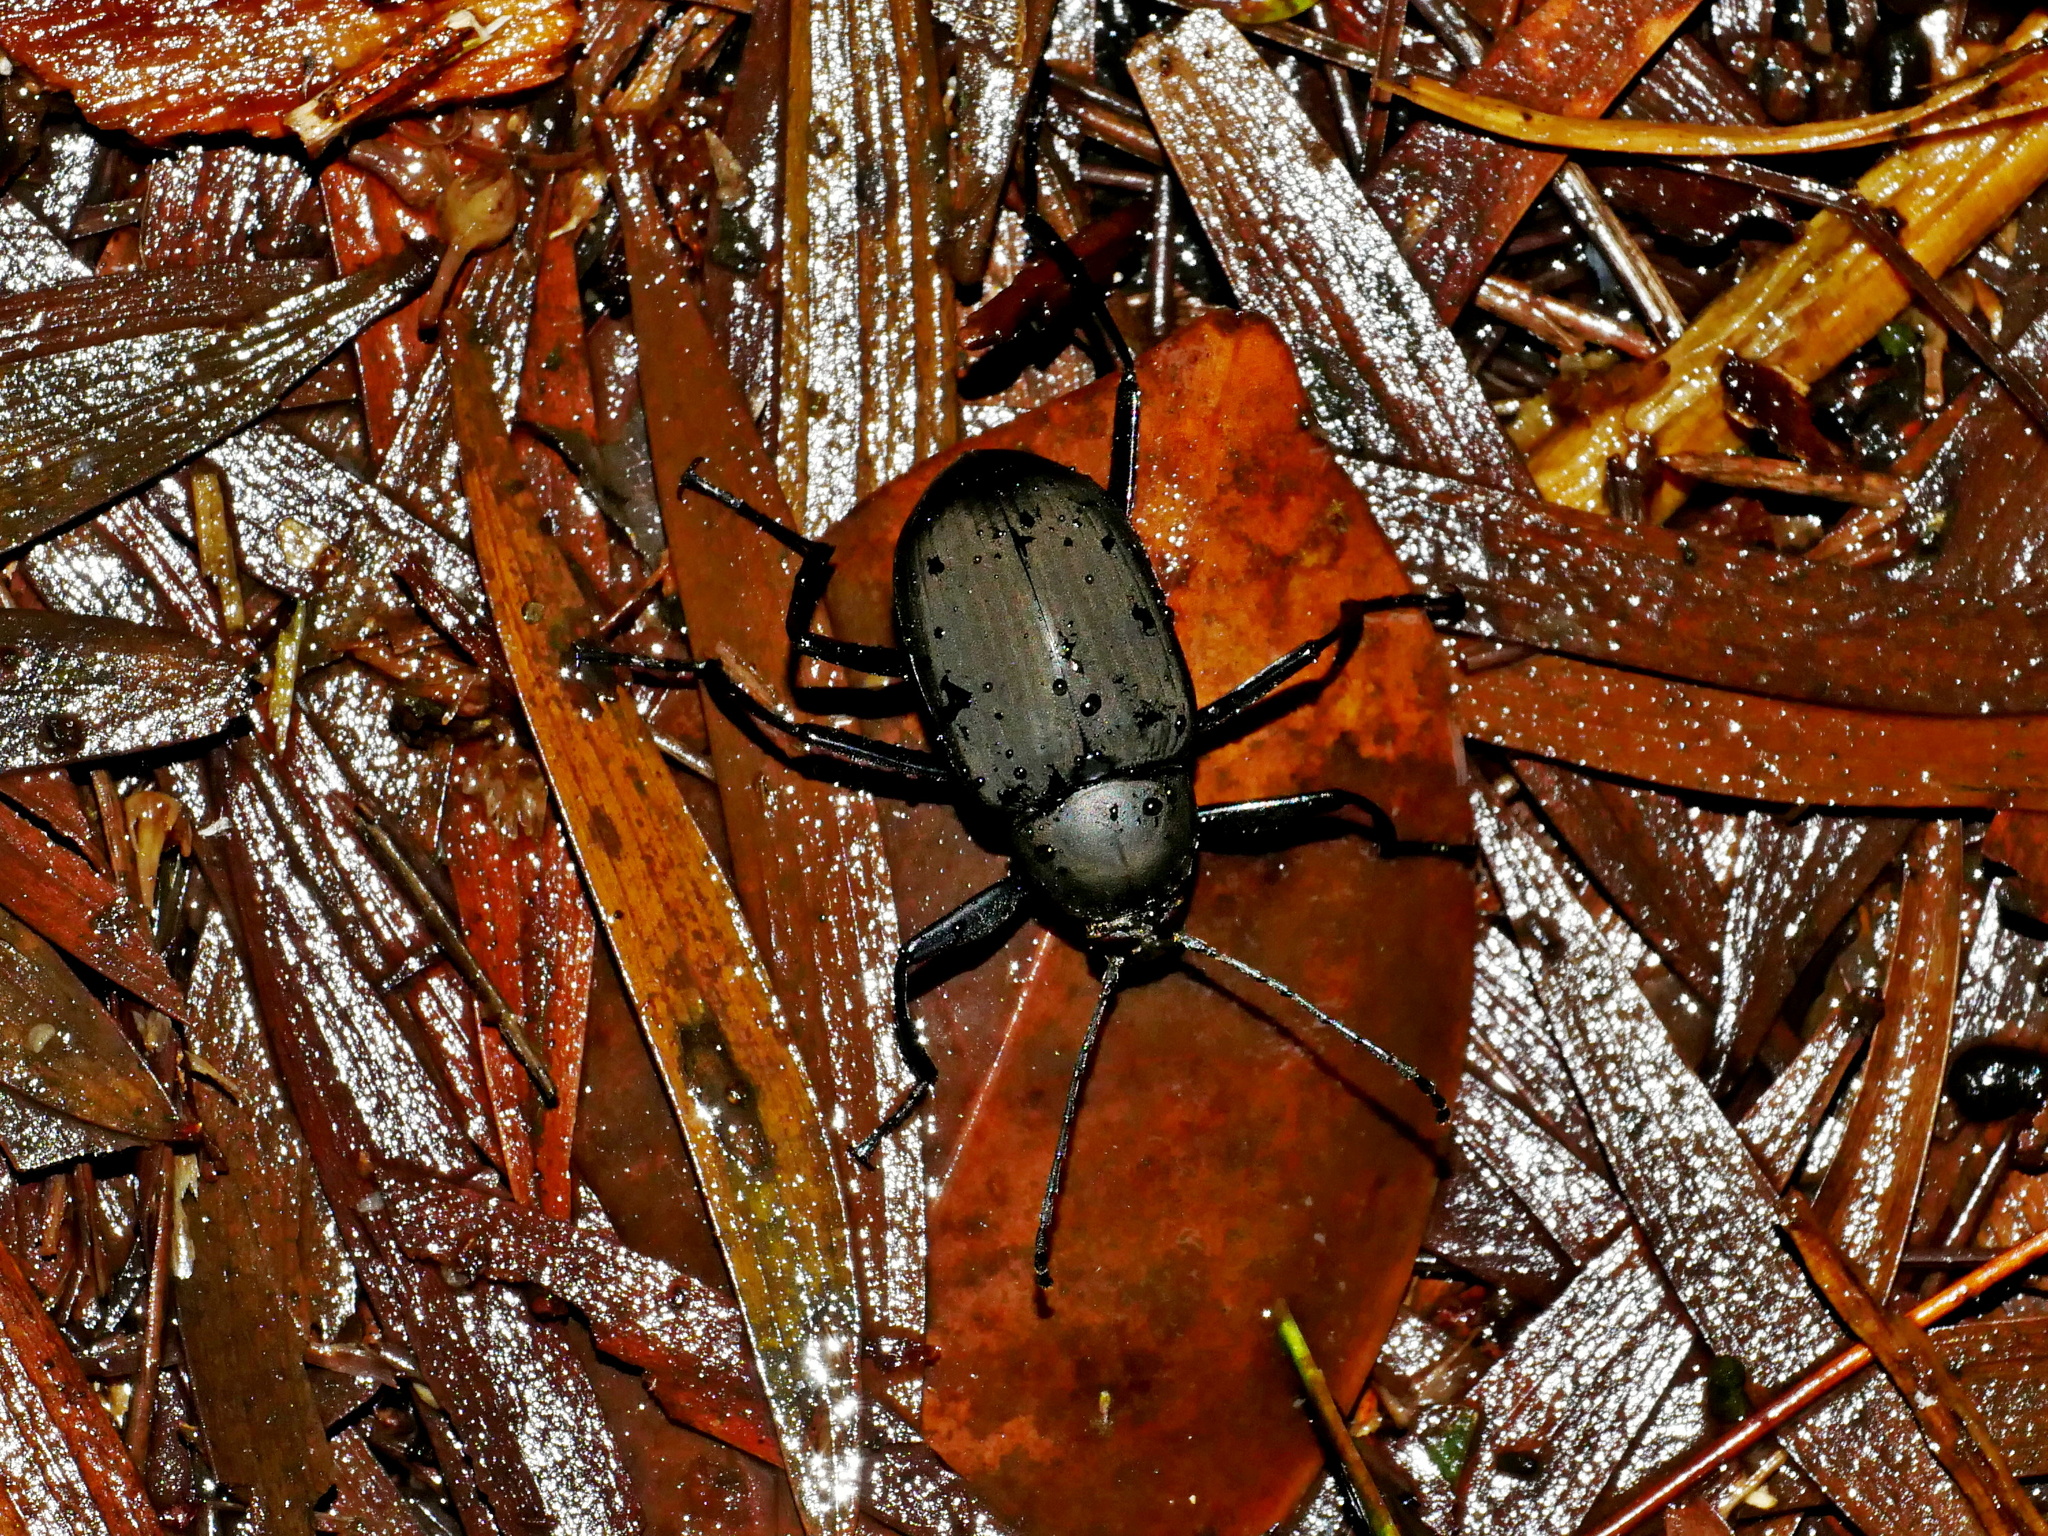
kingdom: Animalia
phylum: Arthropoda
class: Insecta
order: Coleoptera
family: Tenebrionidae
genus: Plesiophthalmus
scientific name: Plesiophthalmus formosanus
